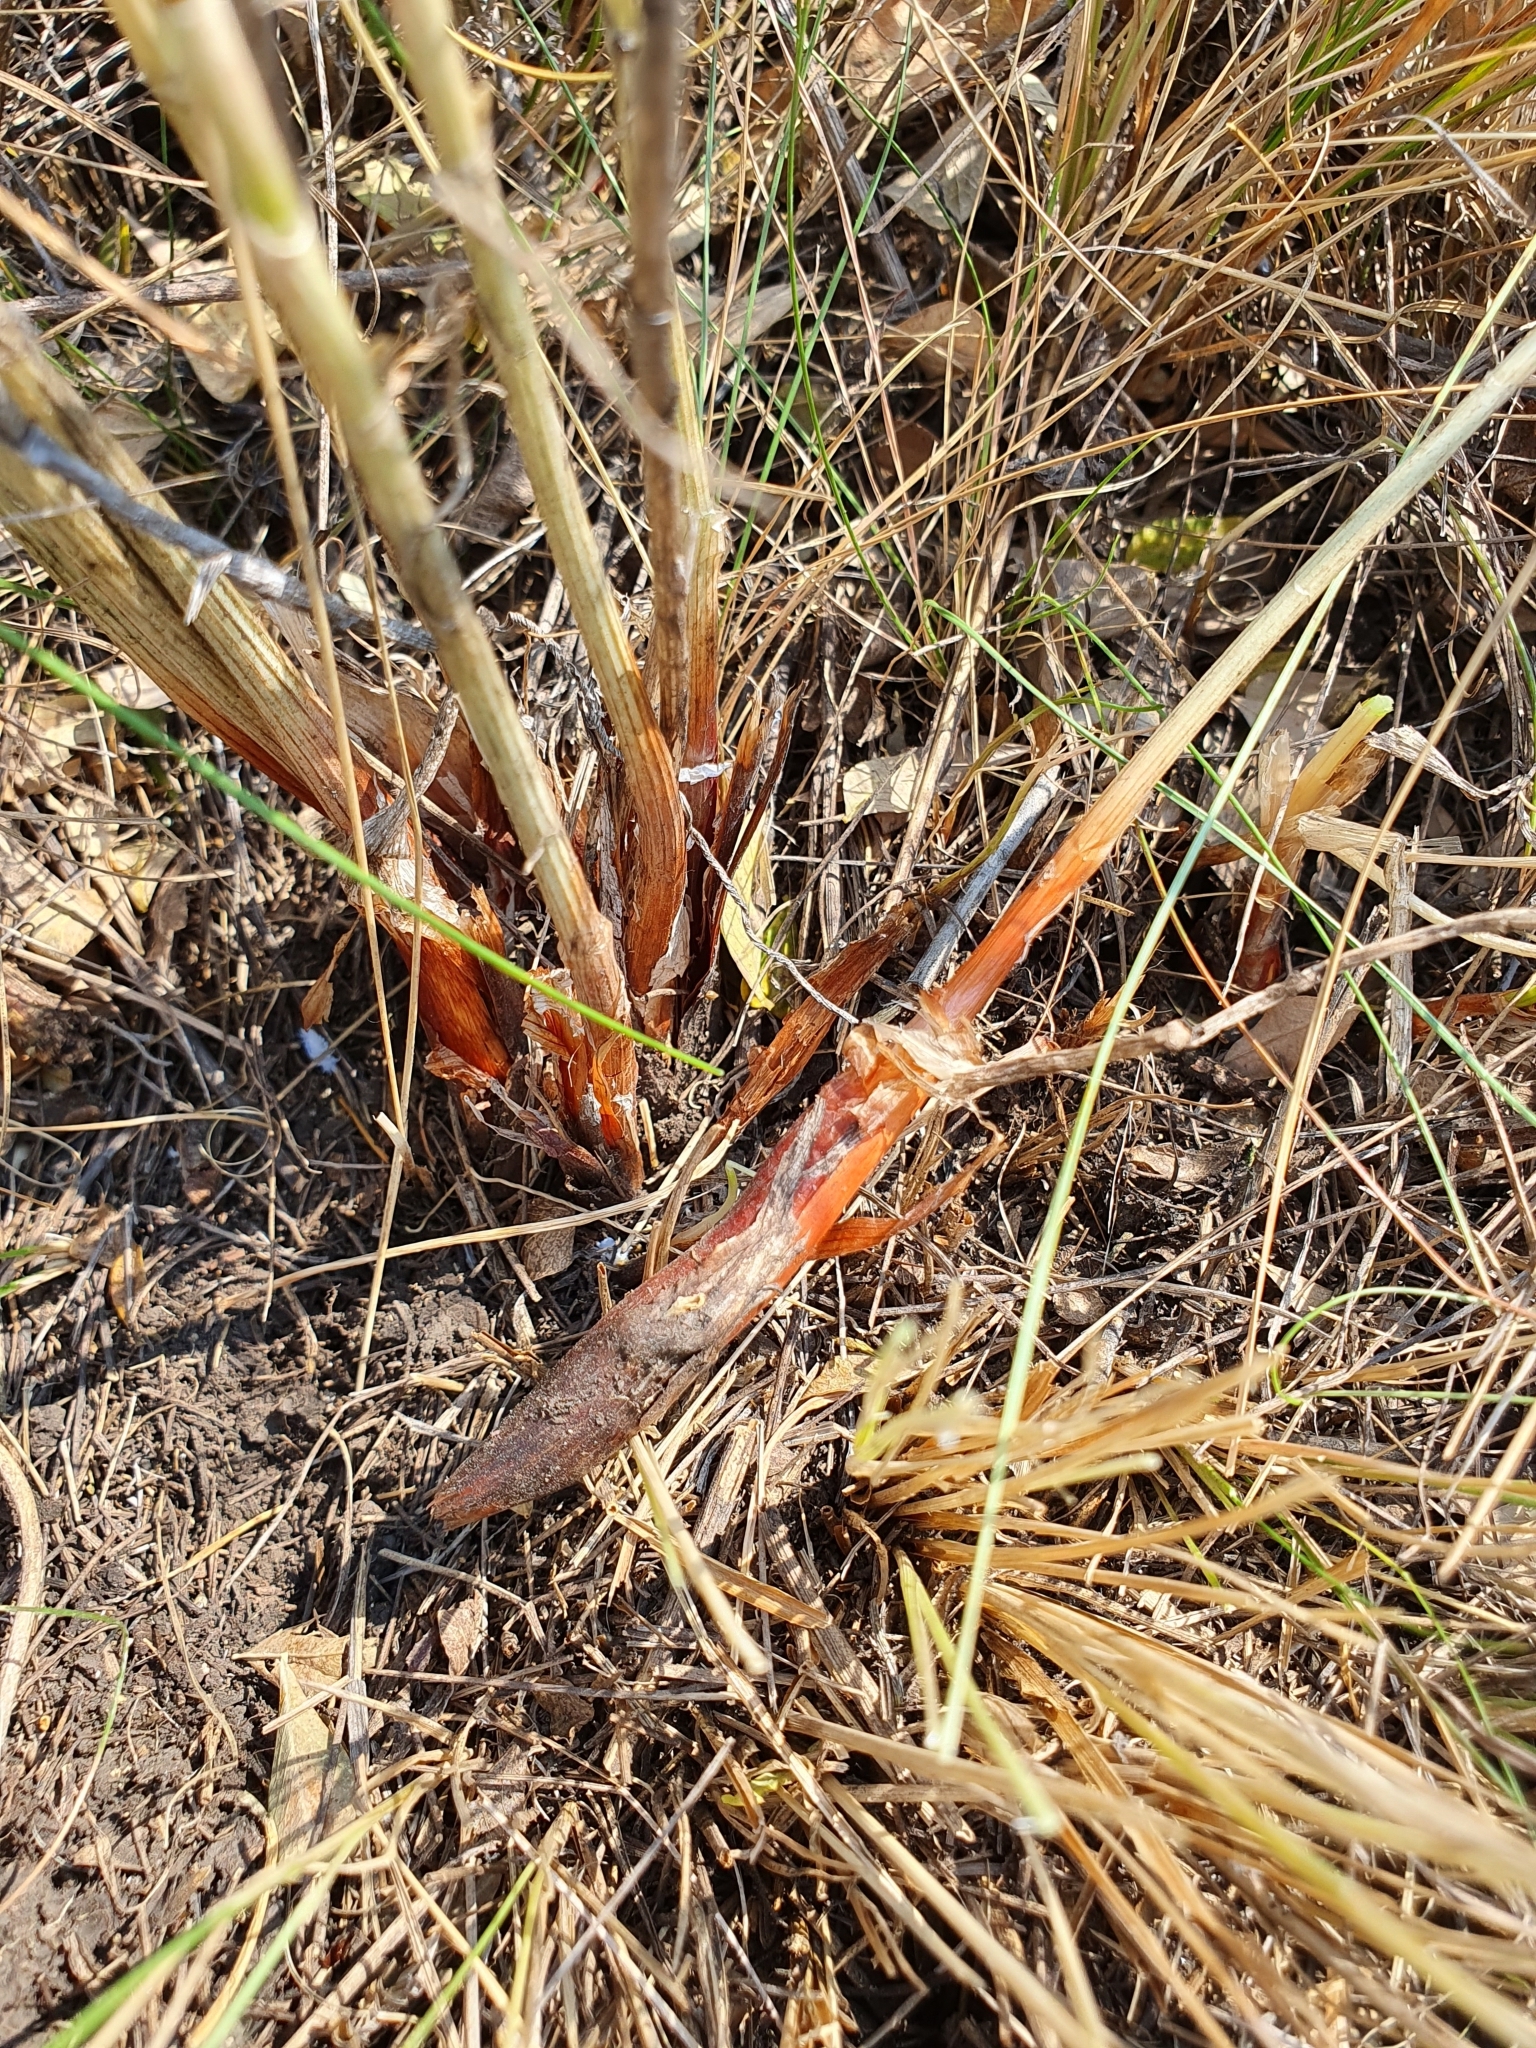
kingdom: Plantae
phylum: Tracheophyta
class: Liliopsida
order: Asparagales
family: Amaryllidaceae
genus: Allium
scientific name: Allium cretaceum
